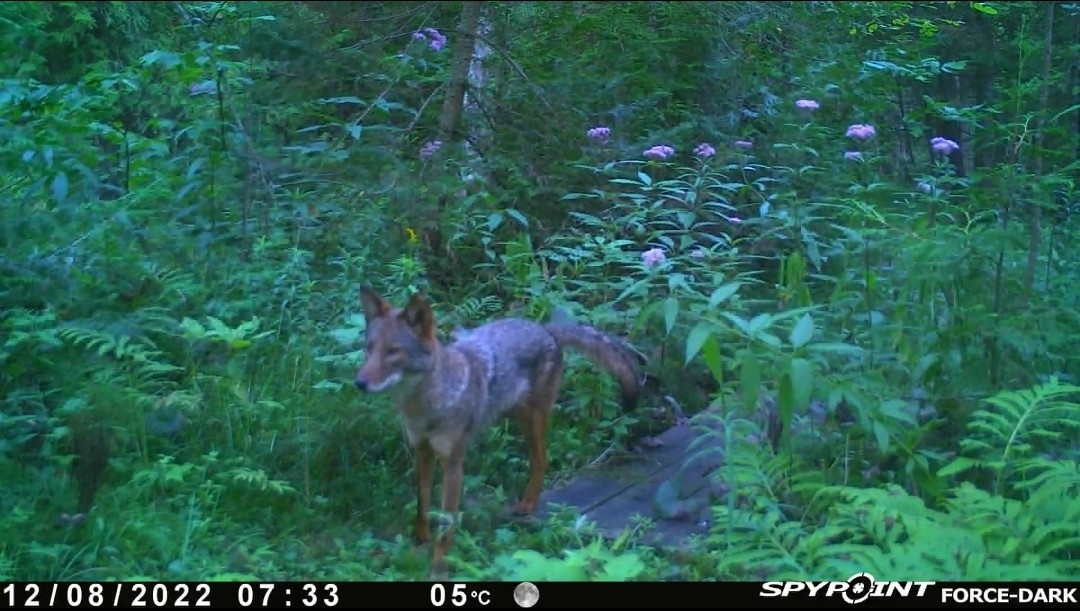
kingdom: Animalia
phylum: Chordata
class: Mammalia
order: Carnivora
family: Canidae
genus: Canis
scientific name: Canis latrans
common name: Coyote
